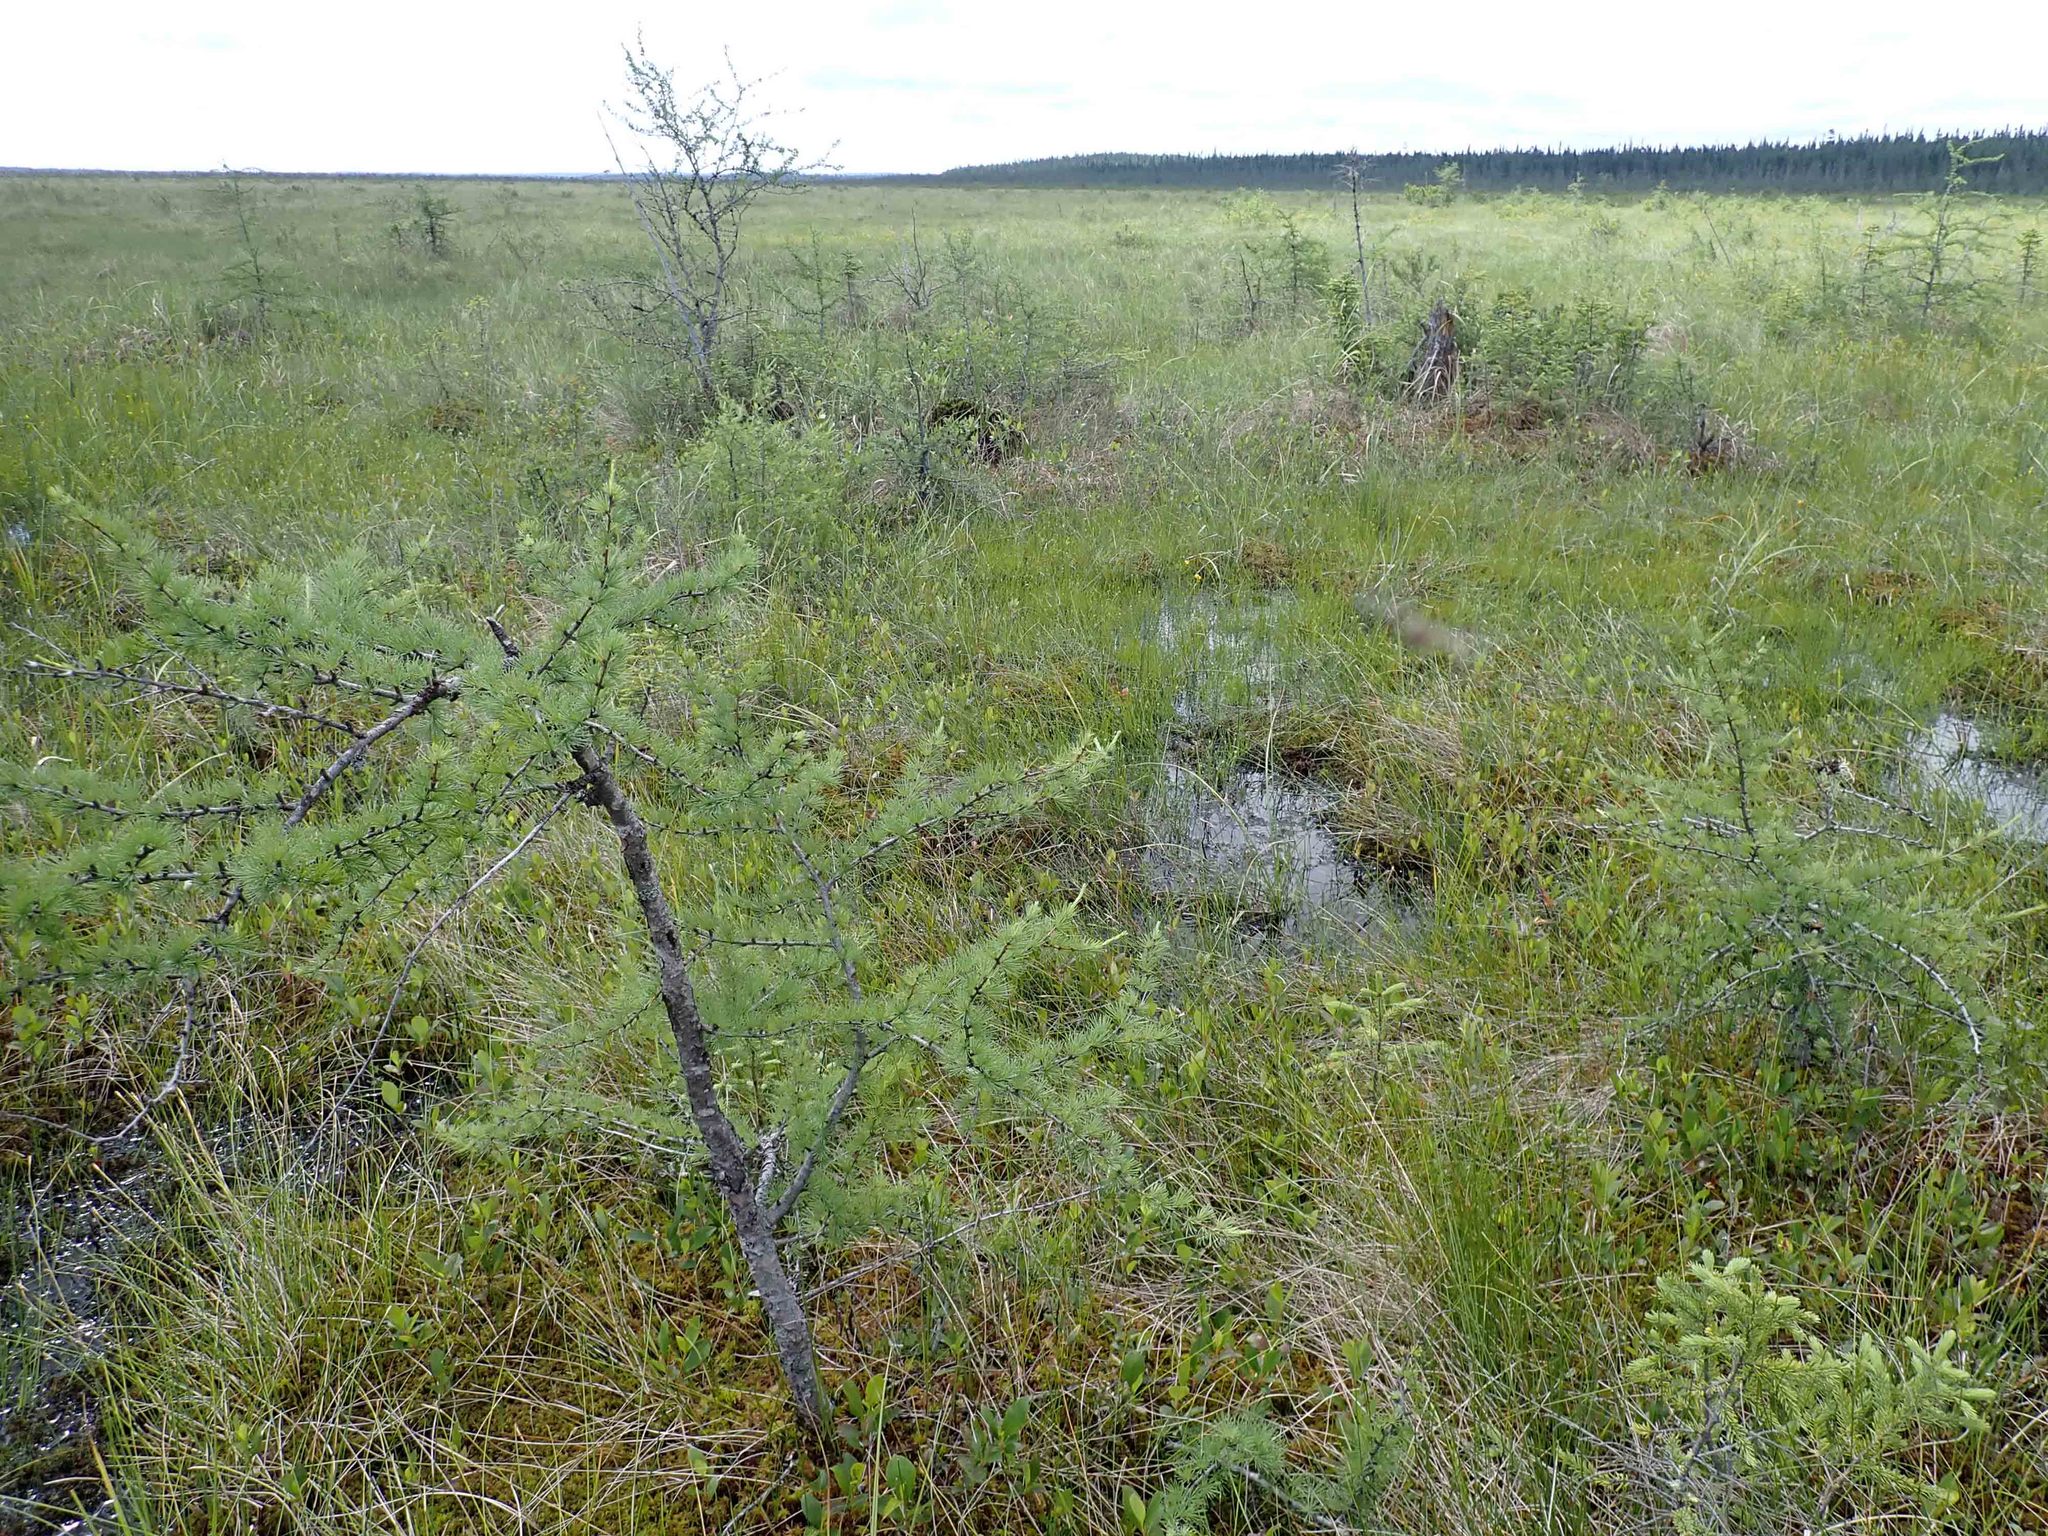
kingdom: Plantae
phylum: Tracheophyta
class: Pinopsida
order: Pinales
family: Pinaceae
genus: Larix
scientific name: Larix laricina
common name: American larch
